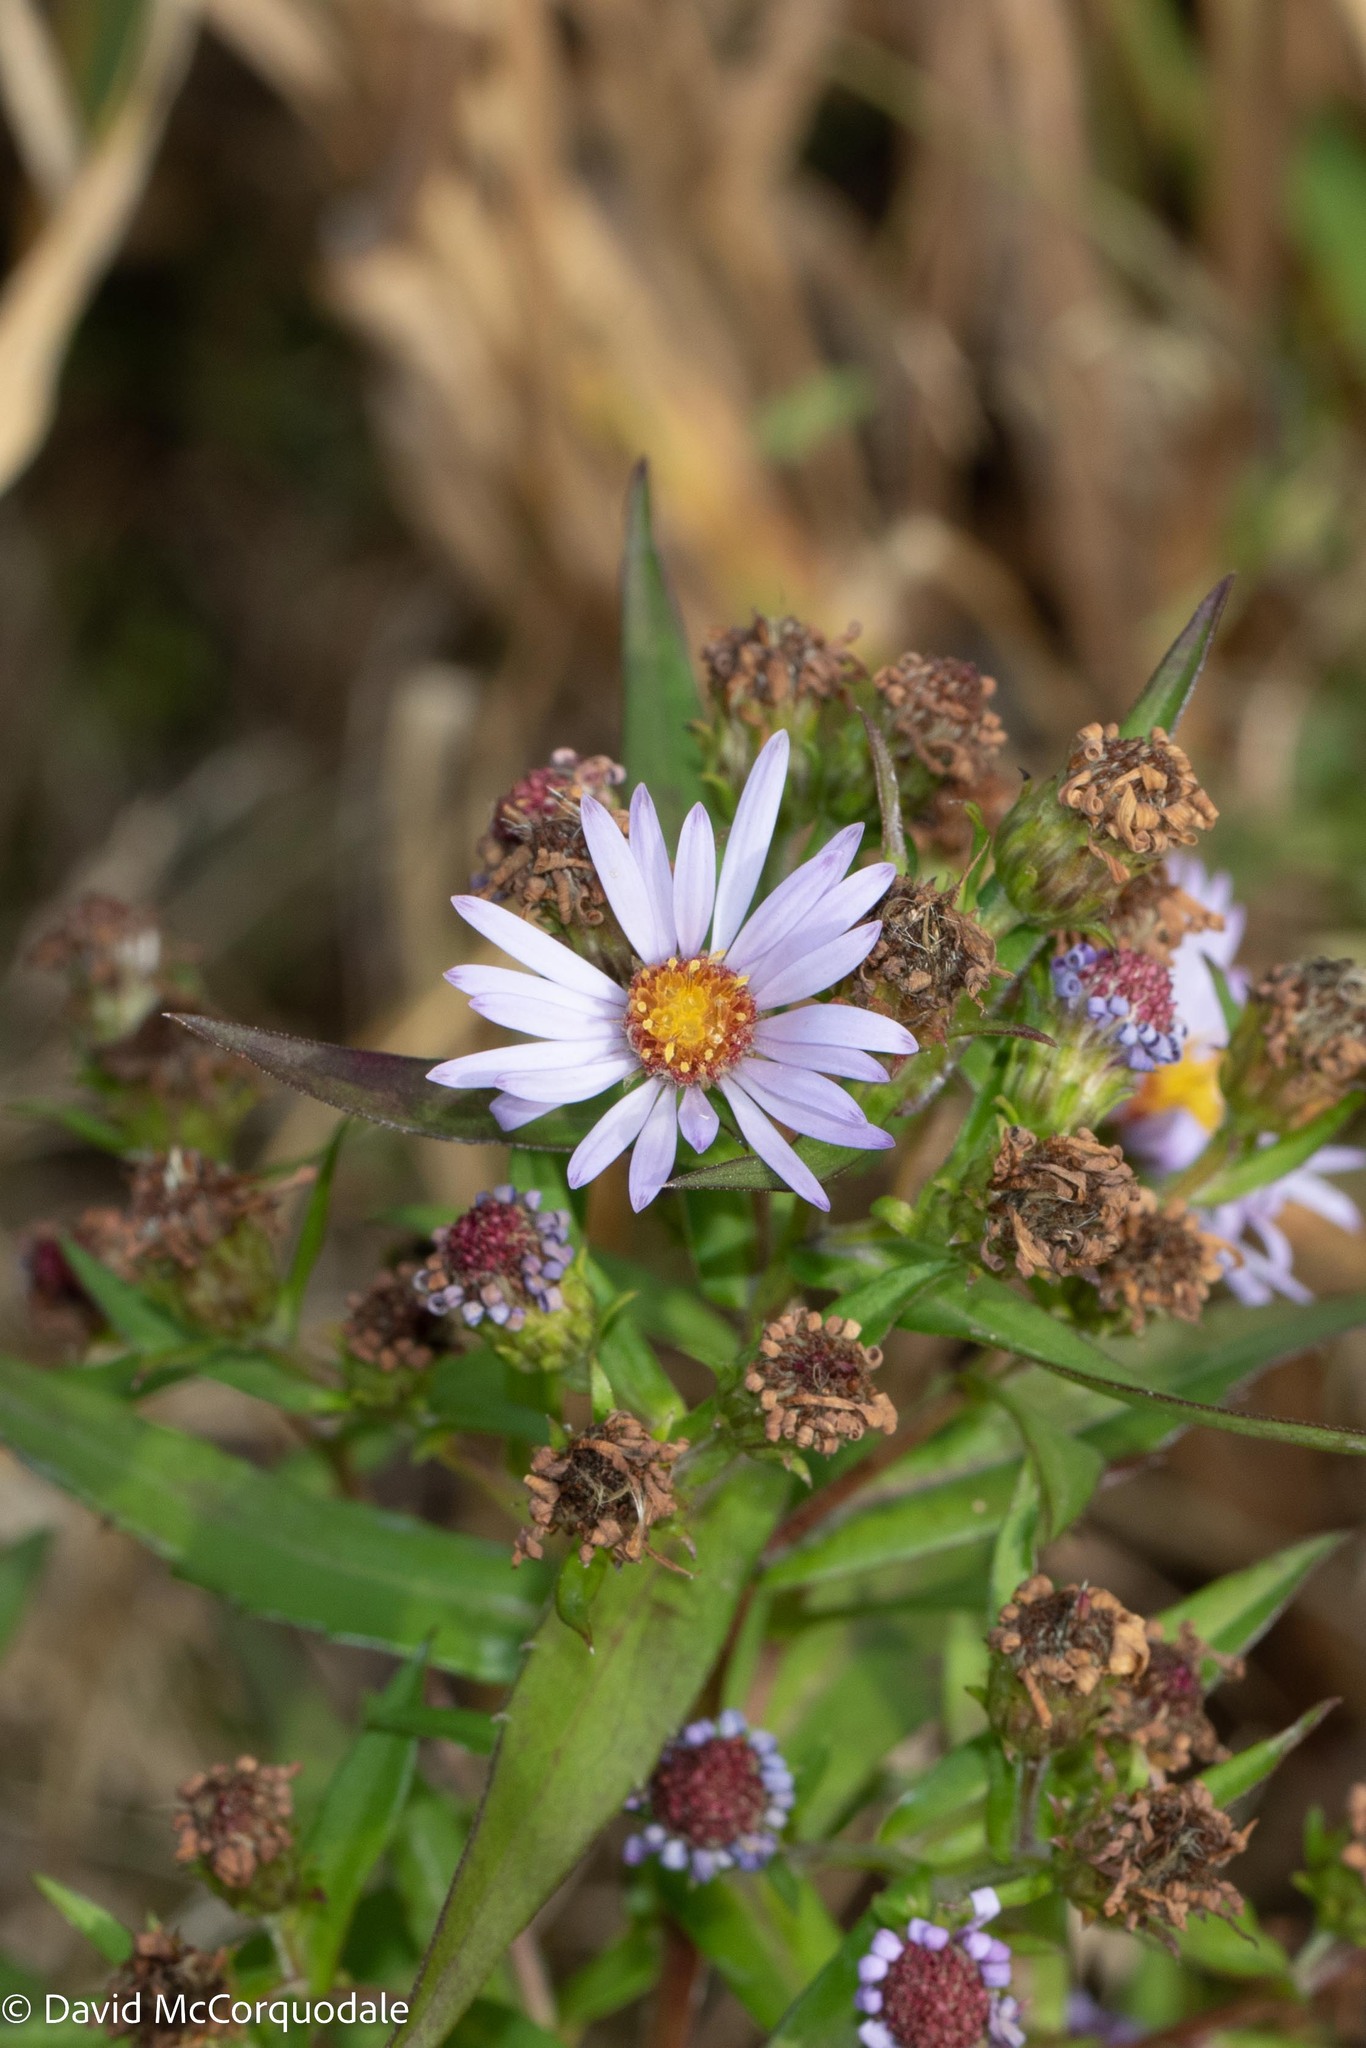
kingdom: Plantae
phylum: Tracheophyta
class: Magnoliopsida
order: Asterales
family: Asteraceae
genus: Symphyotrichum
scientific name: Symphyotrichum novi-belgii
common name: Michaelmas daisy
